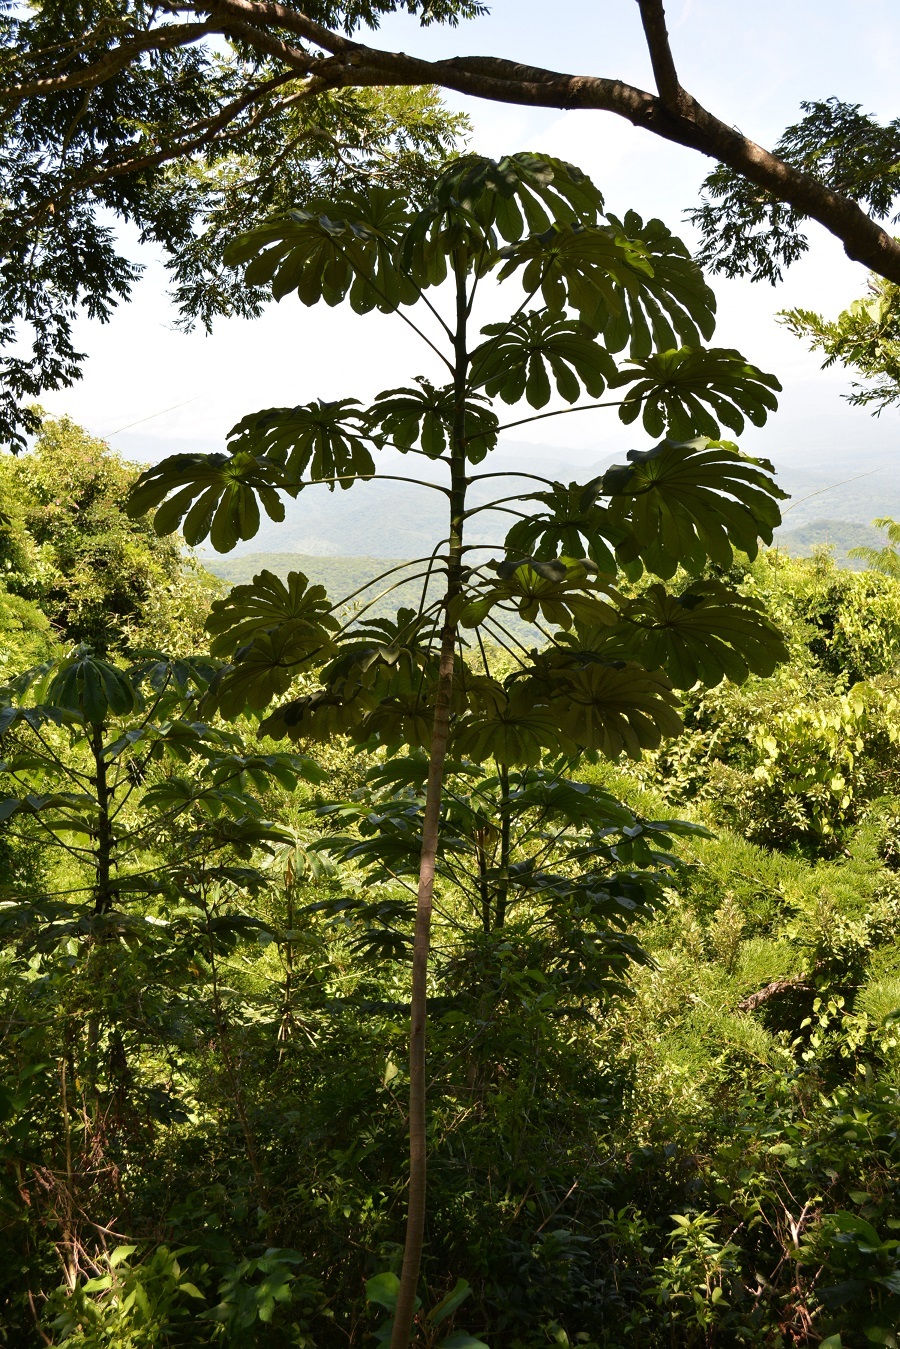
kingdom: Plantae
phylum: Tracheophyta
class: Magnoliopsida
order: Rosales
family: Urticaceae
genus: Cecropia
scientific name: Cecropia obtusifolia
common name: Trumpet tree
